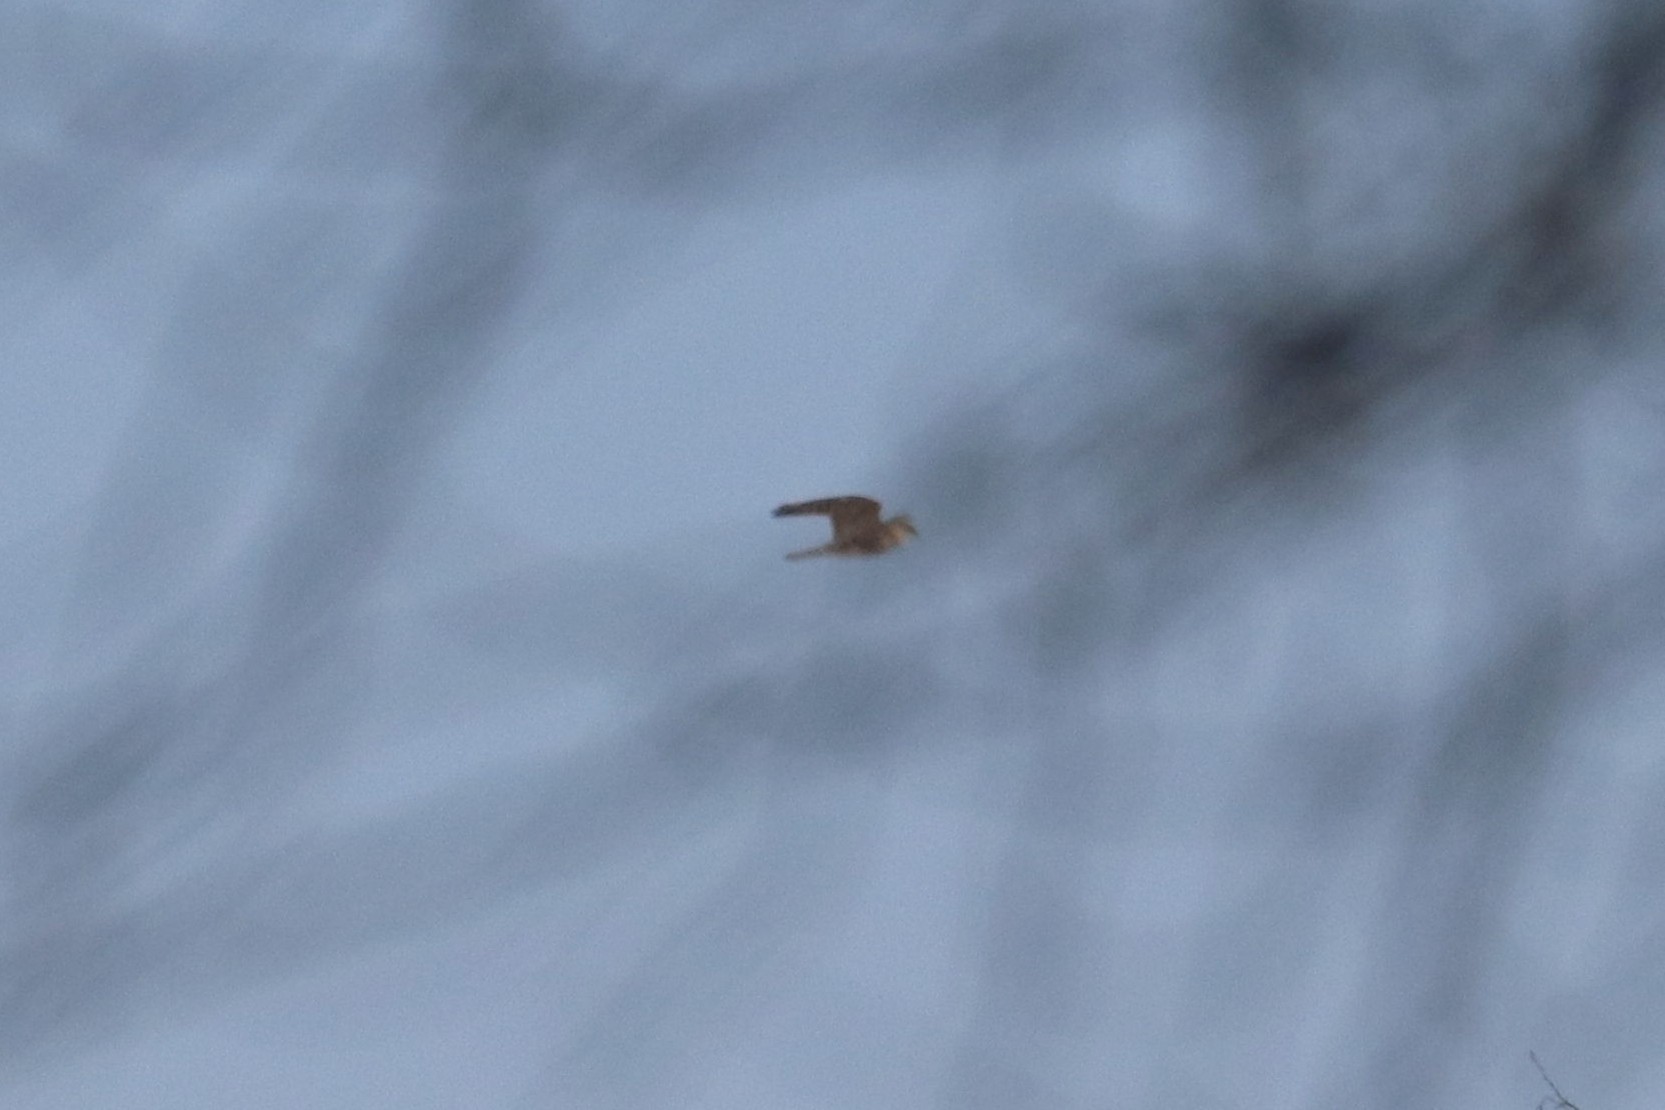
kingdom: Animalia
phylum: Chordata
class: Aves
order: Falconiformes
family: Falconidae
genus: Falco
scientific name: Falco columbarius
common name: Merlin
